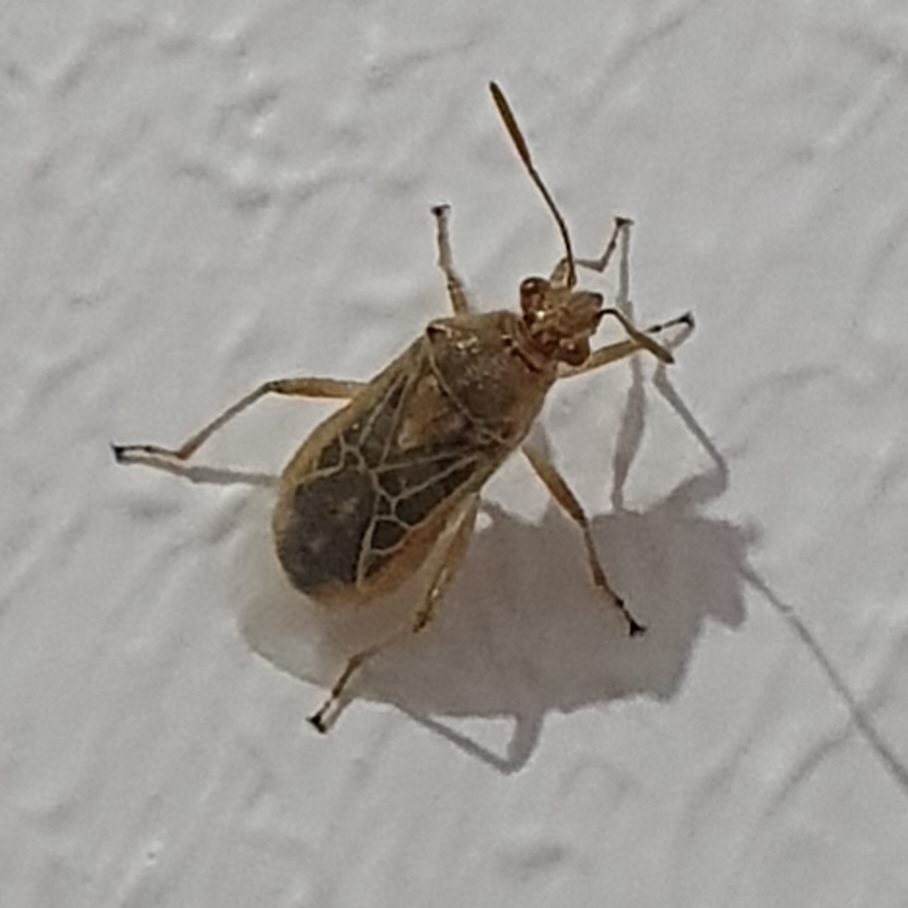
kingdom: Animalia
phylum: Arthropoda
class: Insecta
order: Hemiptera
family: Rhopalidae
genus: Liorhyssus
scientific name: Liorhyssus hyalinus
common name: Scentless plant bug
